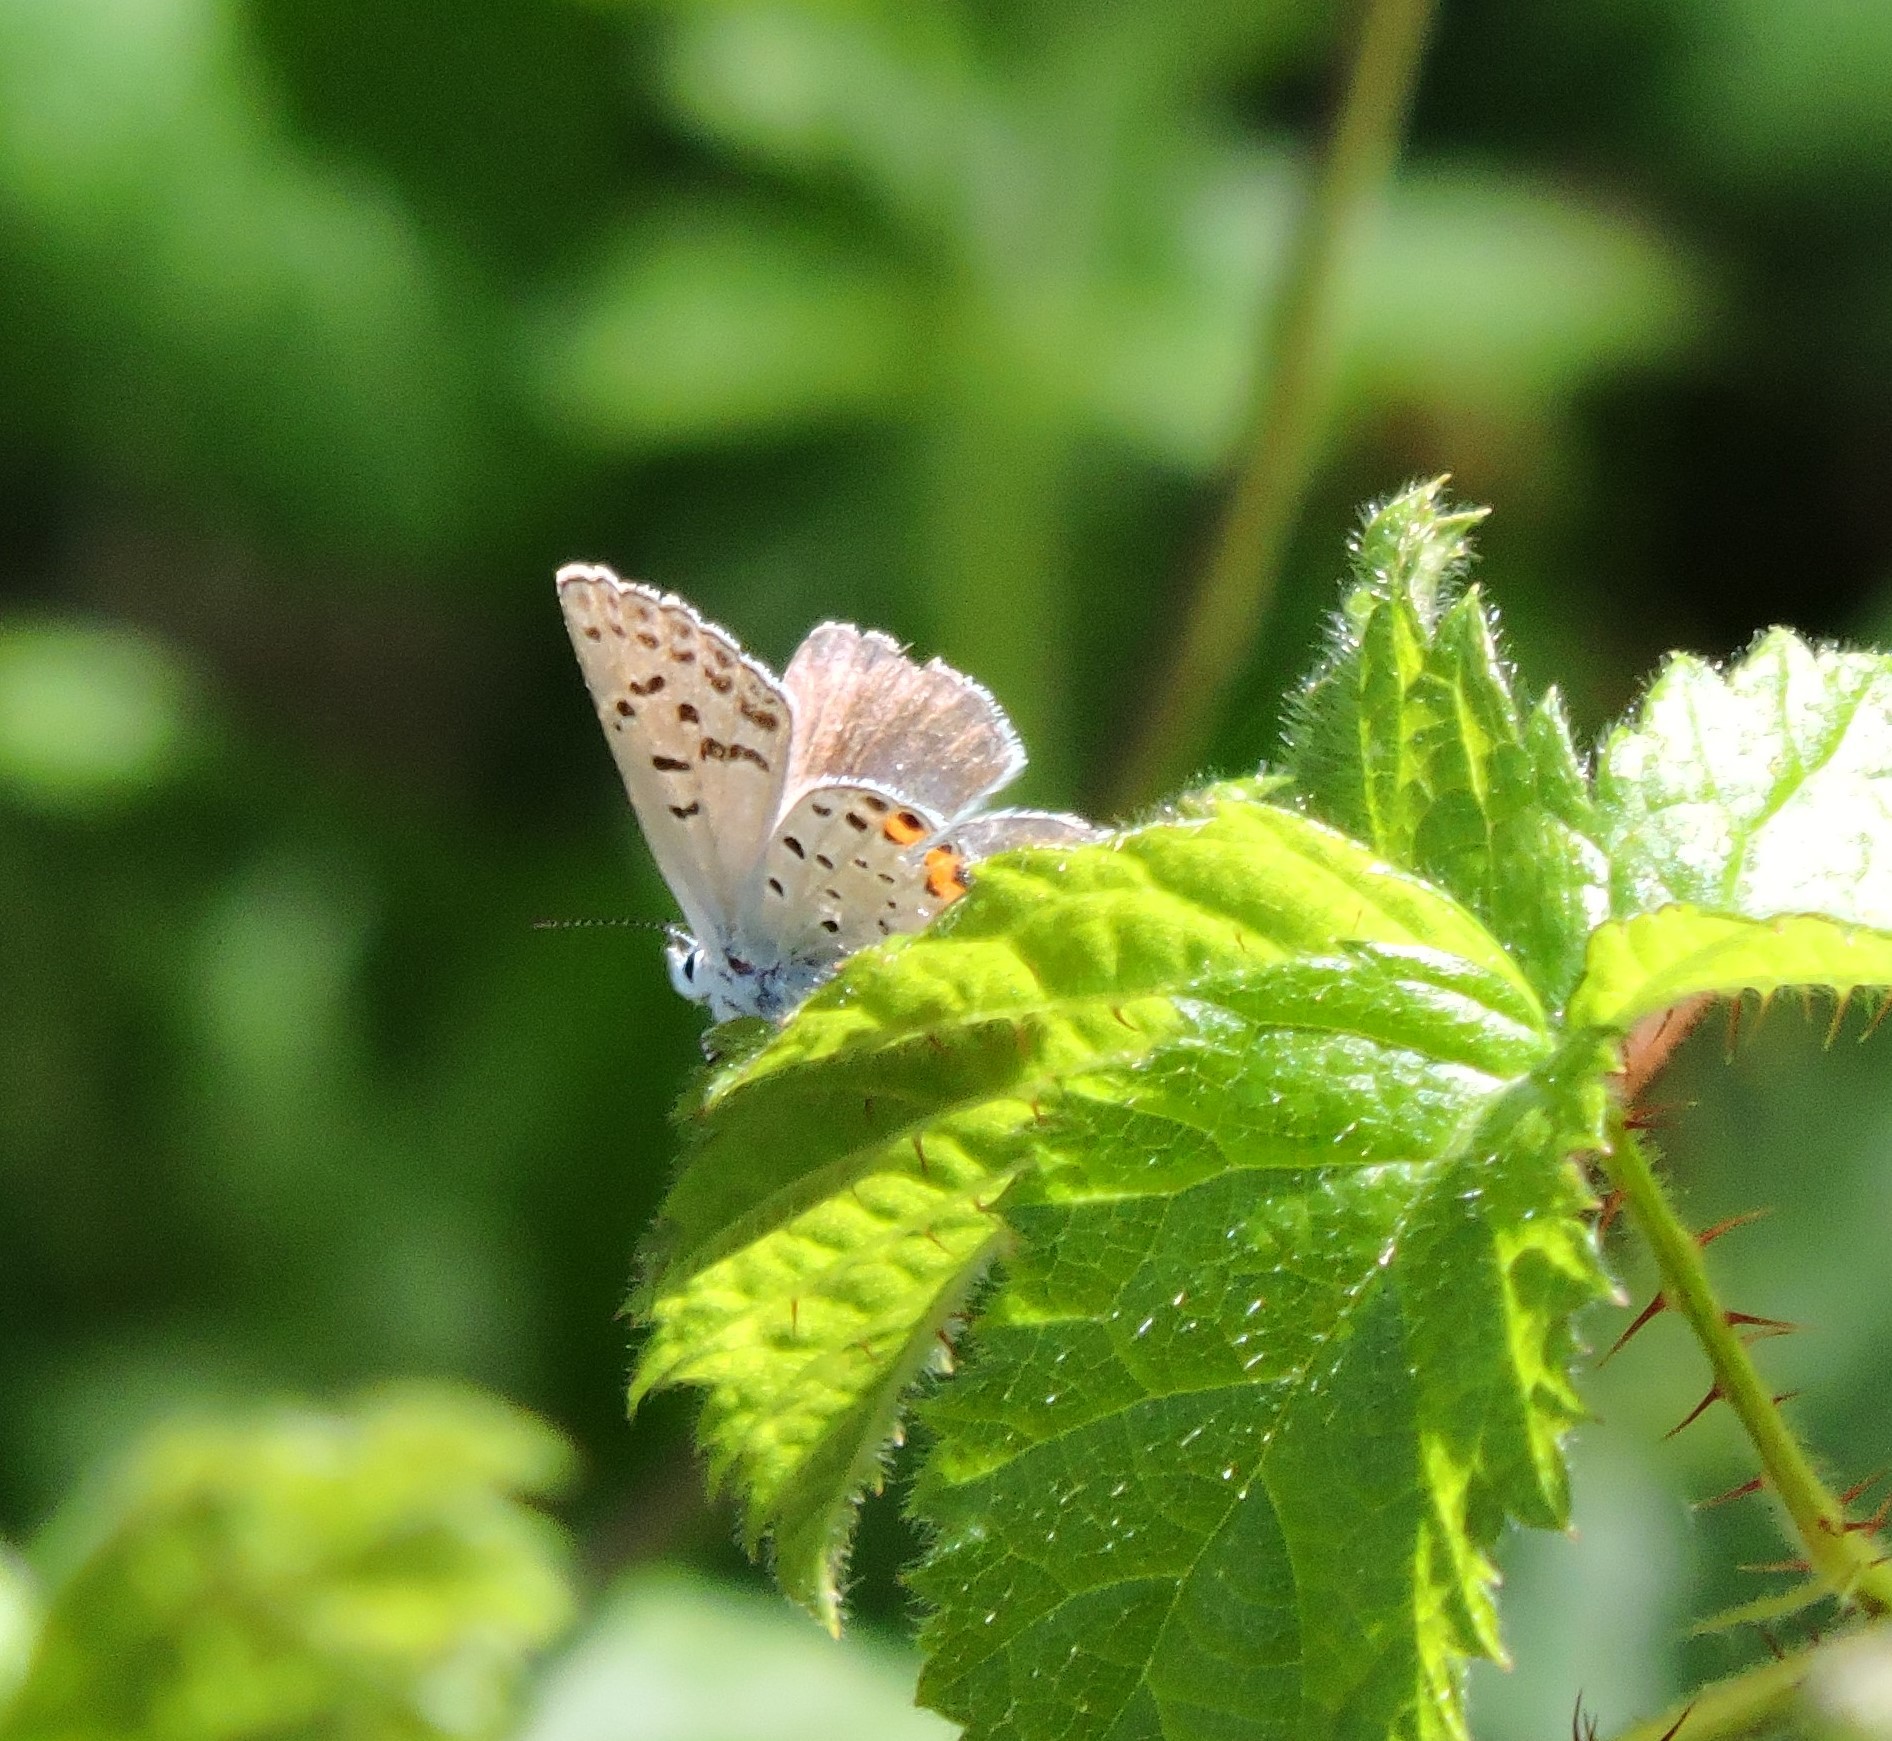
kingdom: Animalia
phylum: Arthropoda
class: Insecta
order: Lepidoptera
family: Lycaenidae
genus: Icaricia
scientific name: Icaricia acmon
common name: Acmon blue
